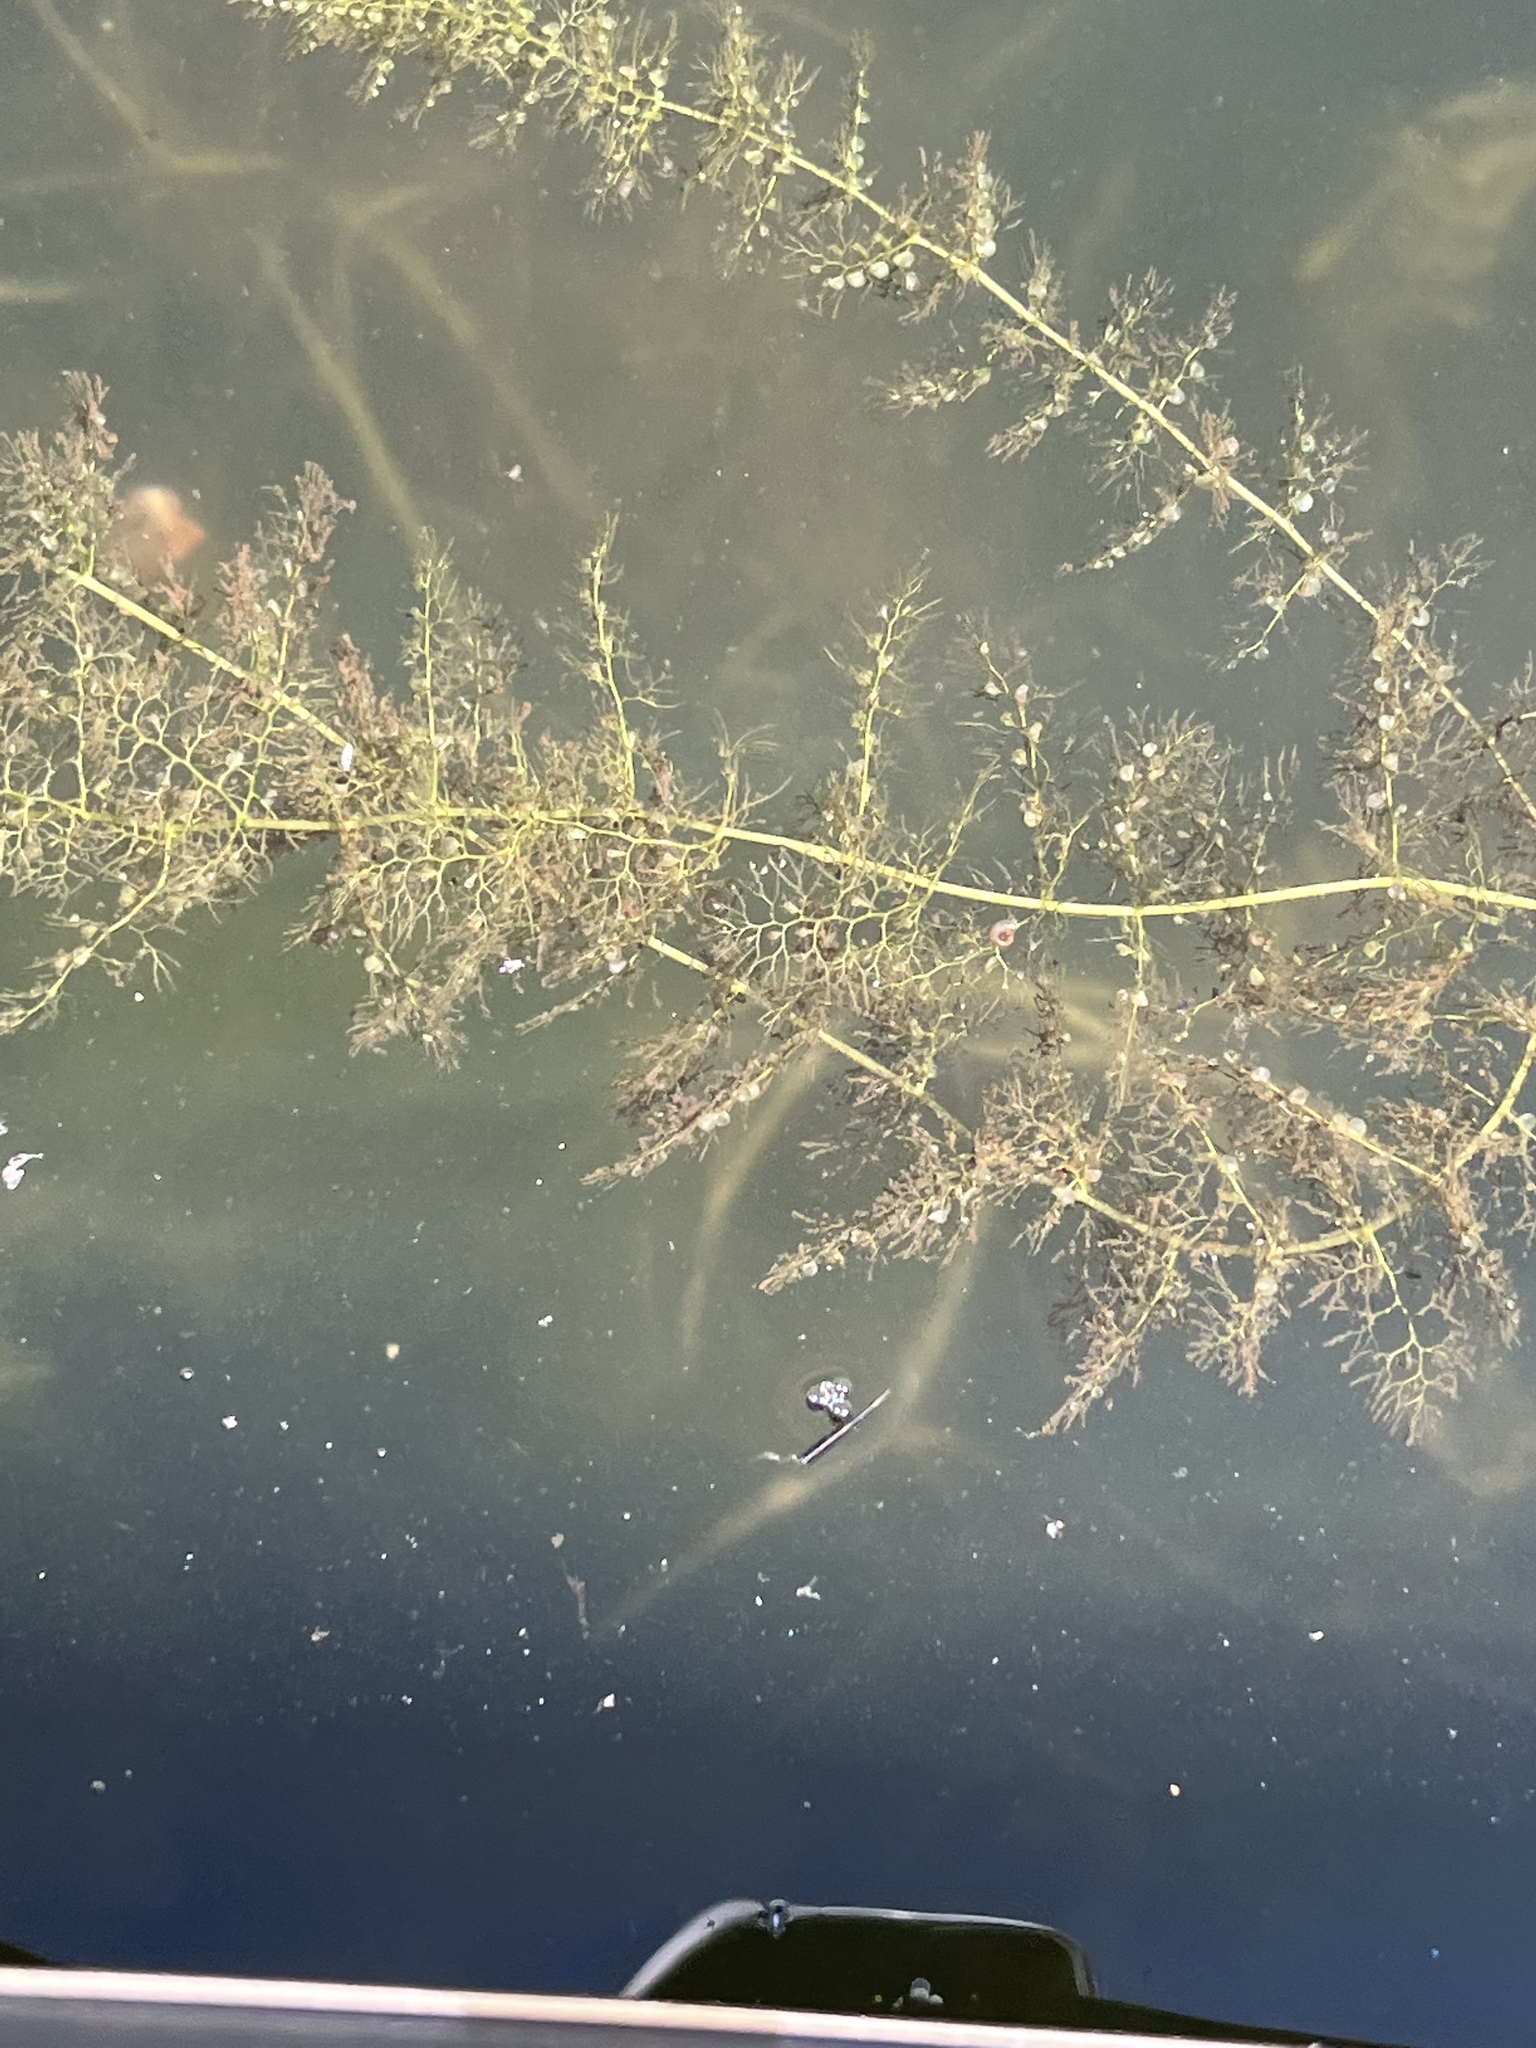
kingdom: Plantae
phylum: Tracheophyta
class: Magnoliopsida
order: Lamiales
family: Lentibulariaceae
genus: Utricularia
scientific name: Utricularia macrorhiza
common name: Common bladderwort
